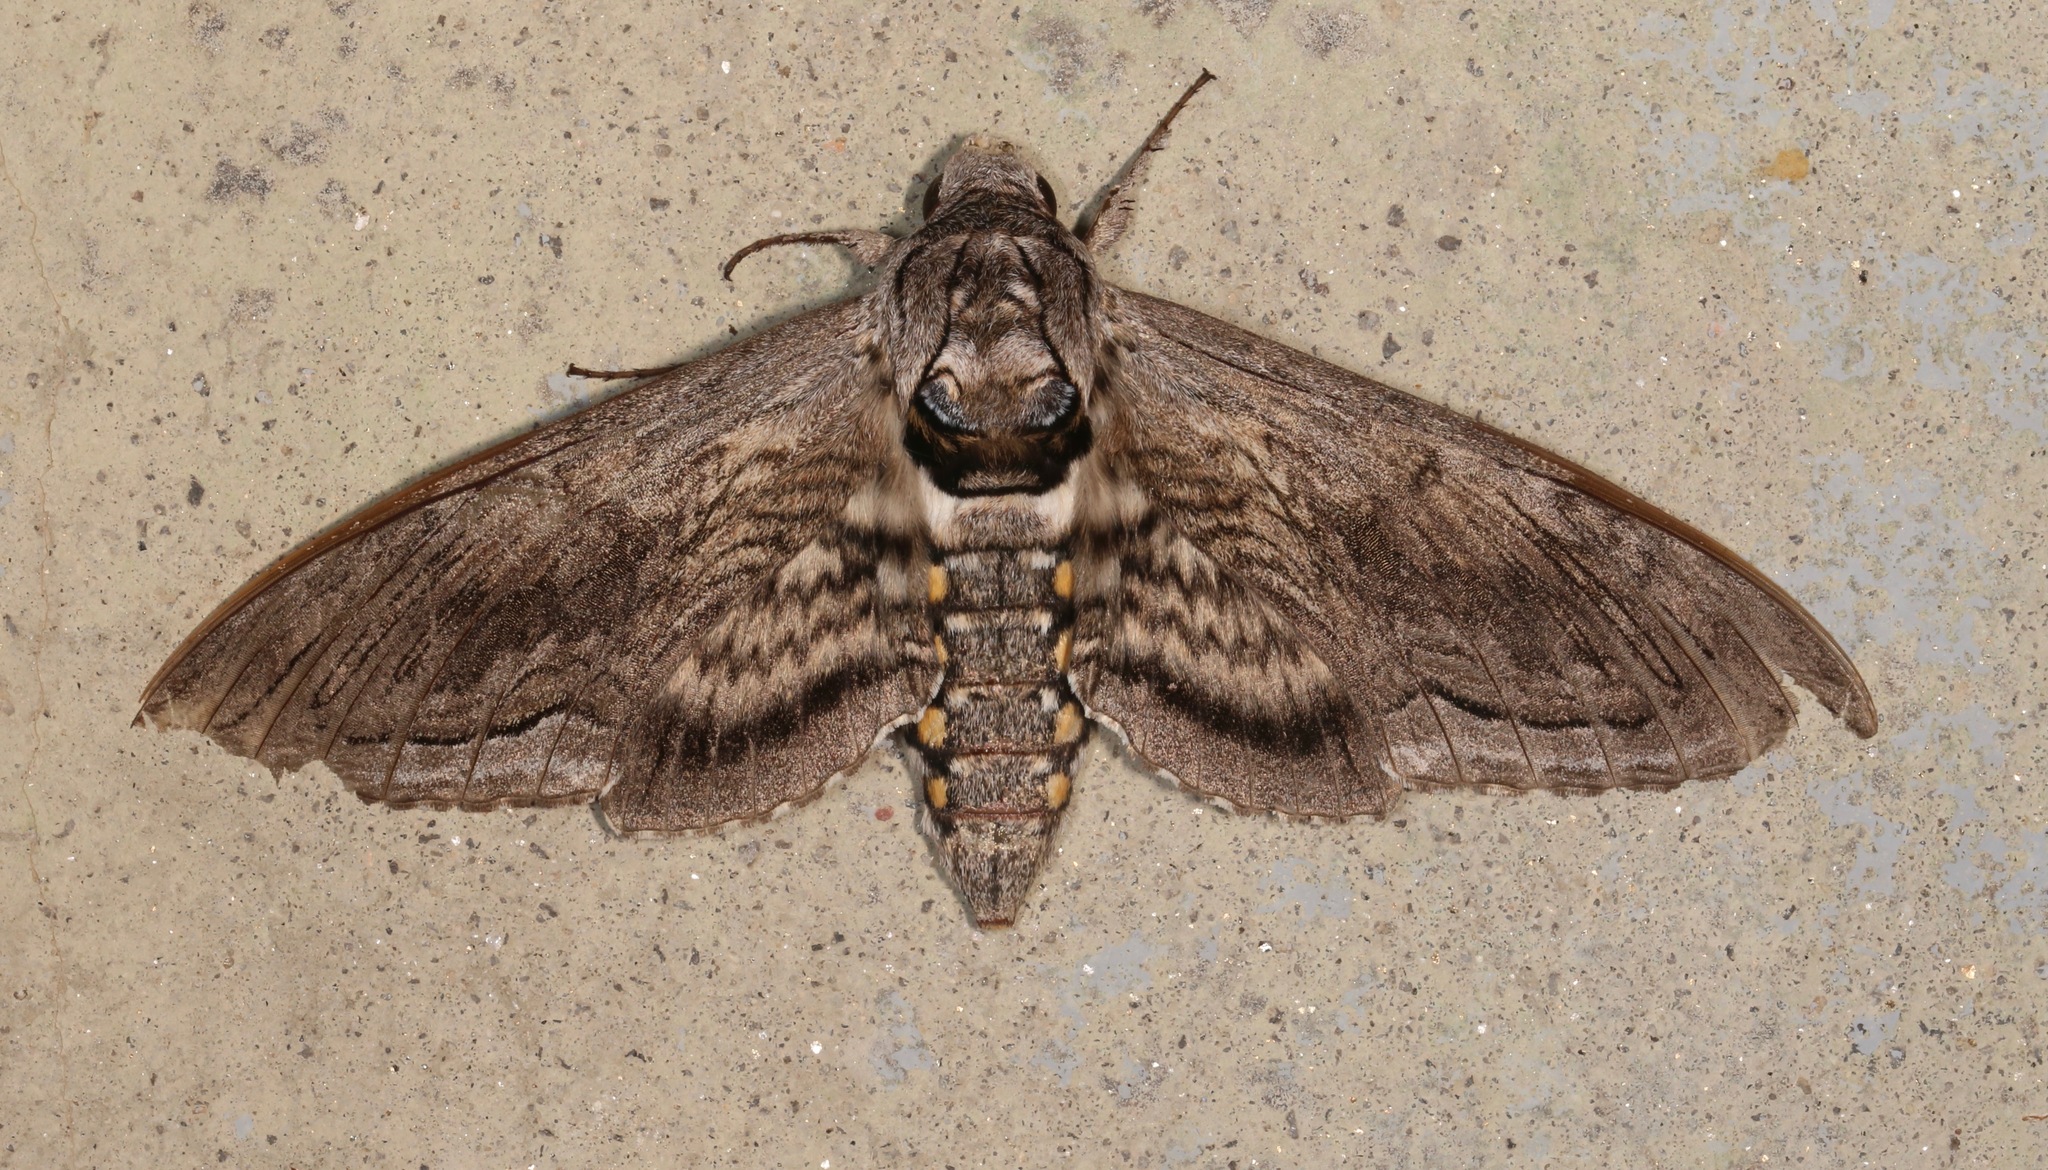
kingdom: Animalia
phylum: Arthropoda
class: Insecta
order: Lepidoptera
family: Sphingidae
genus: Manduca
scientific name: Manduca quinquemaculatus
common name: Five-spotted hawk-moth
